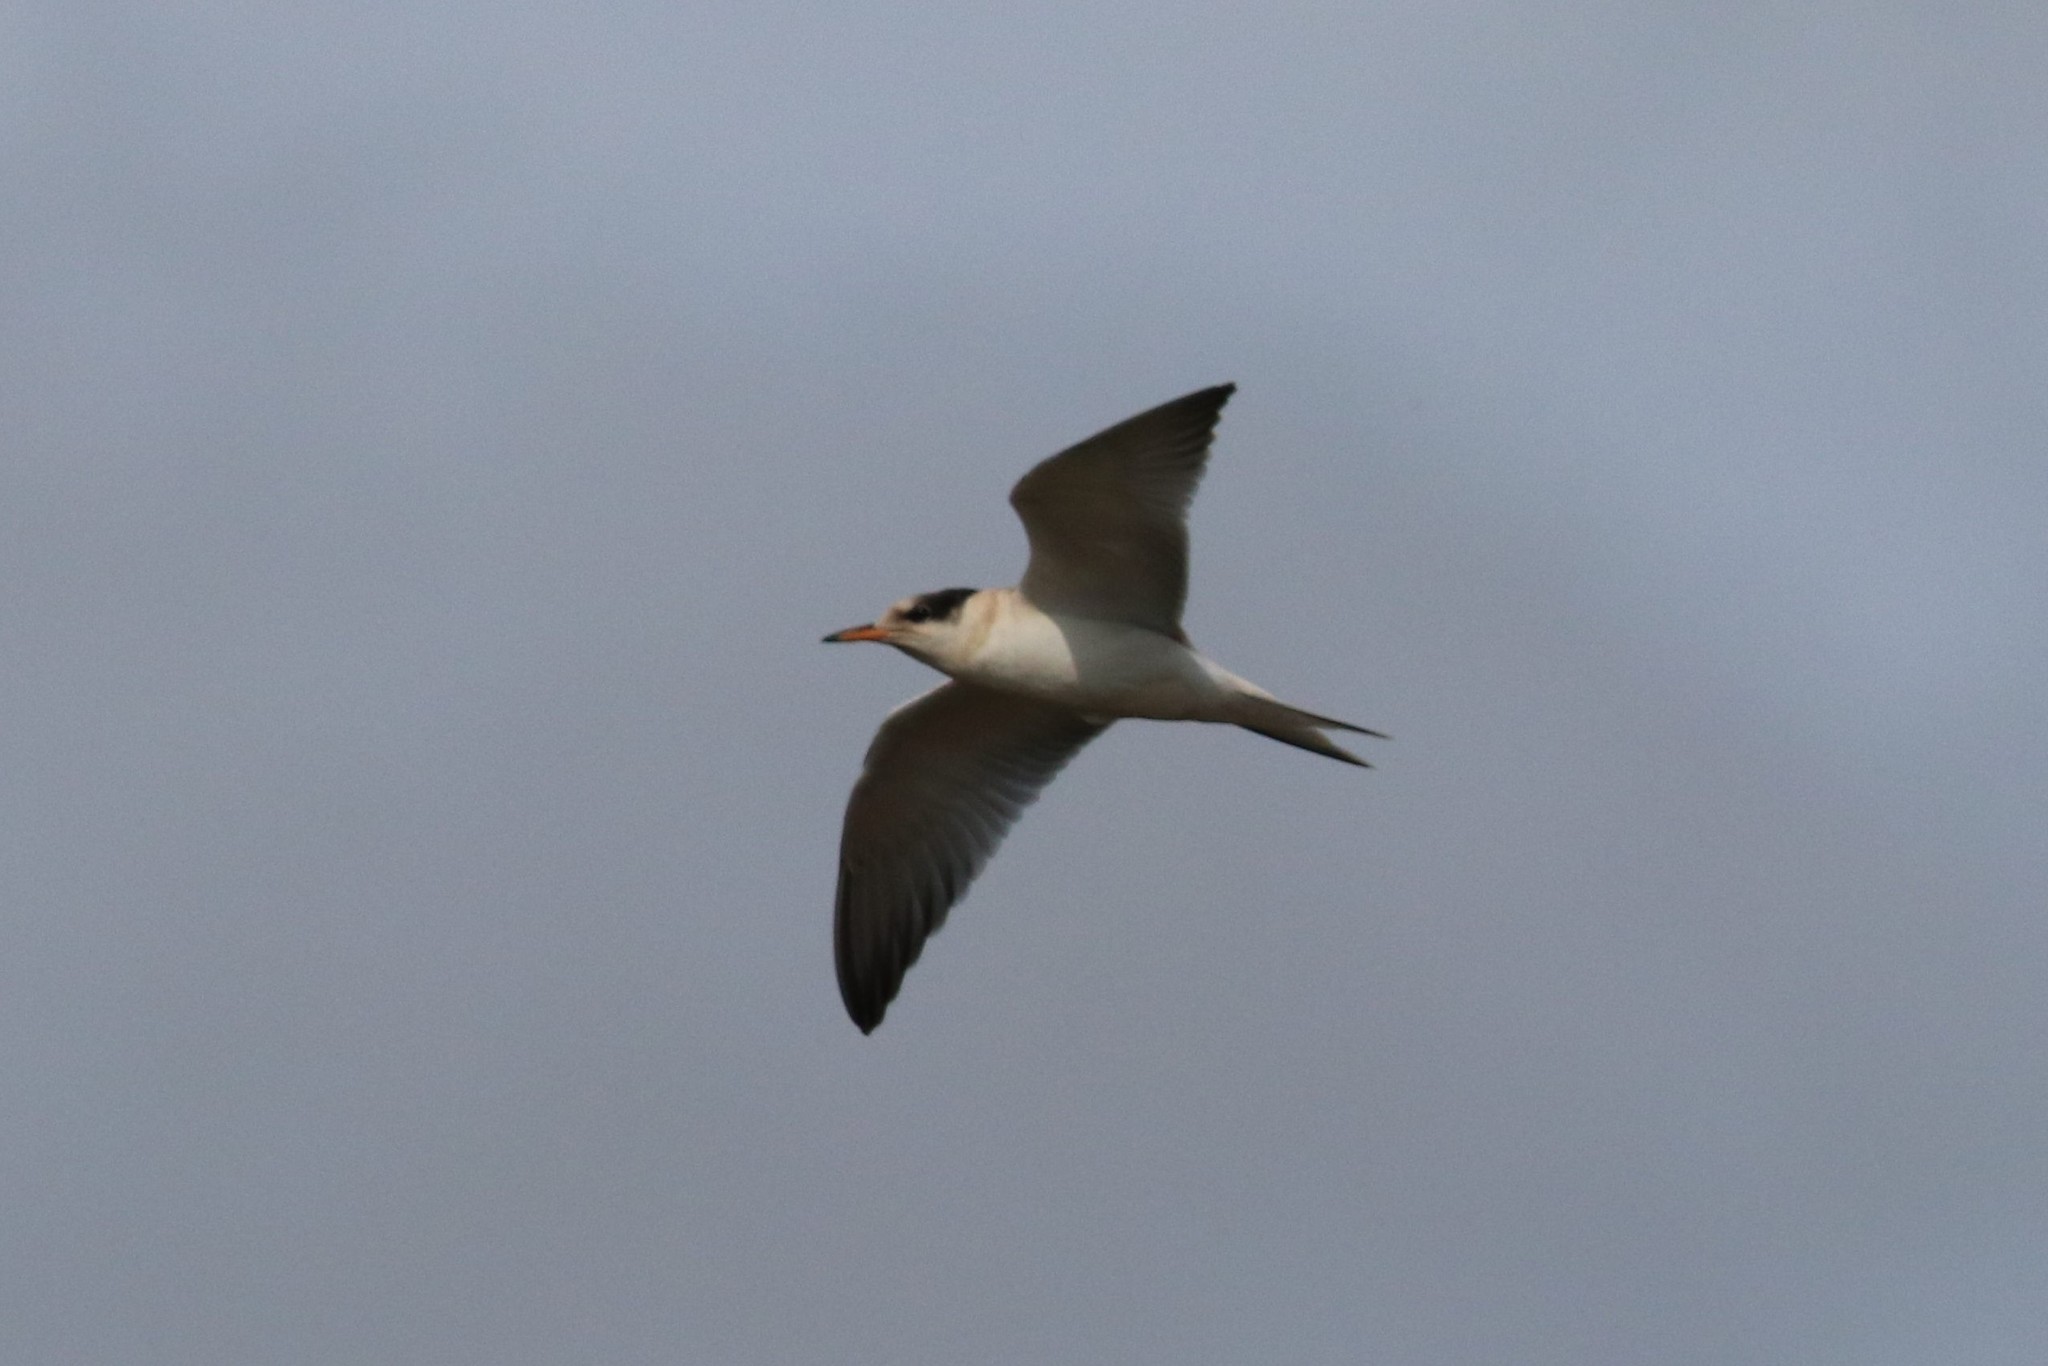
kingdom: Animalia
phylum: Chordata
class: Aves
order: Charadriiformes
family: Laridae
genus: Sterna
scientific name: Sterna hirundo
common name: Common tern
